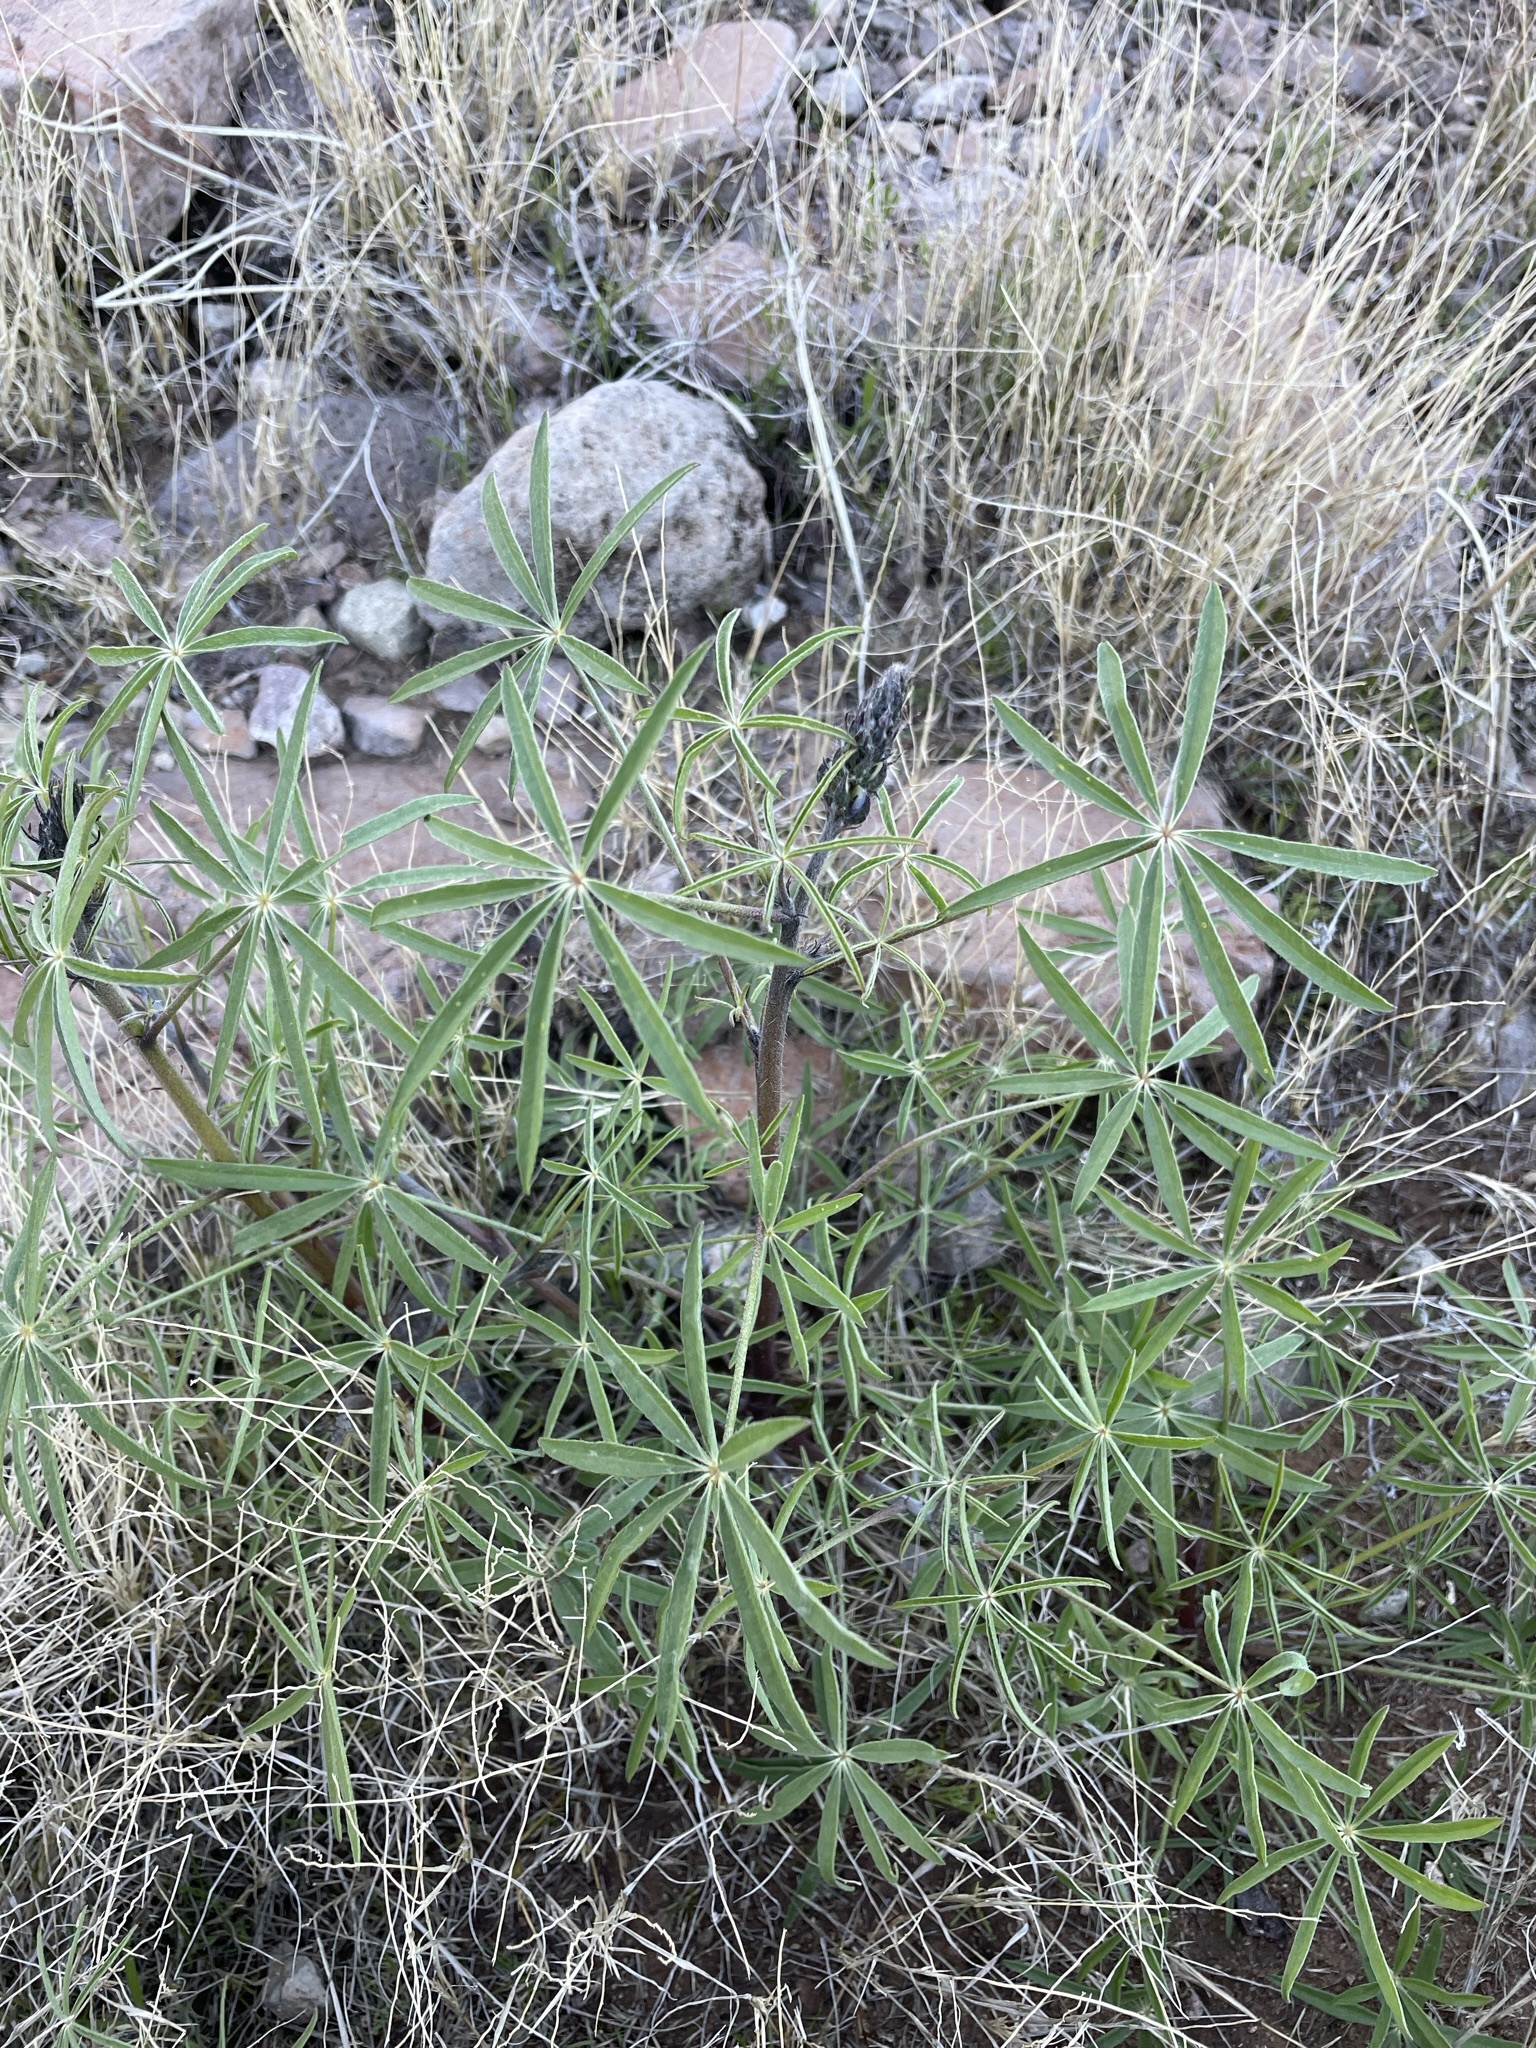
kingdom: Plantae
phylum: Tracheophyta
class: Magnoliopsida
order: Fabales
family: Fabaceae
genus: Lupinus
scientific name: Lupinus sparsiflorus
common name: Coulter's lupine
